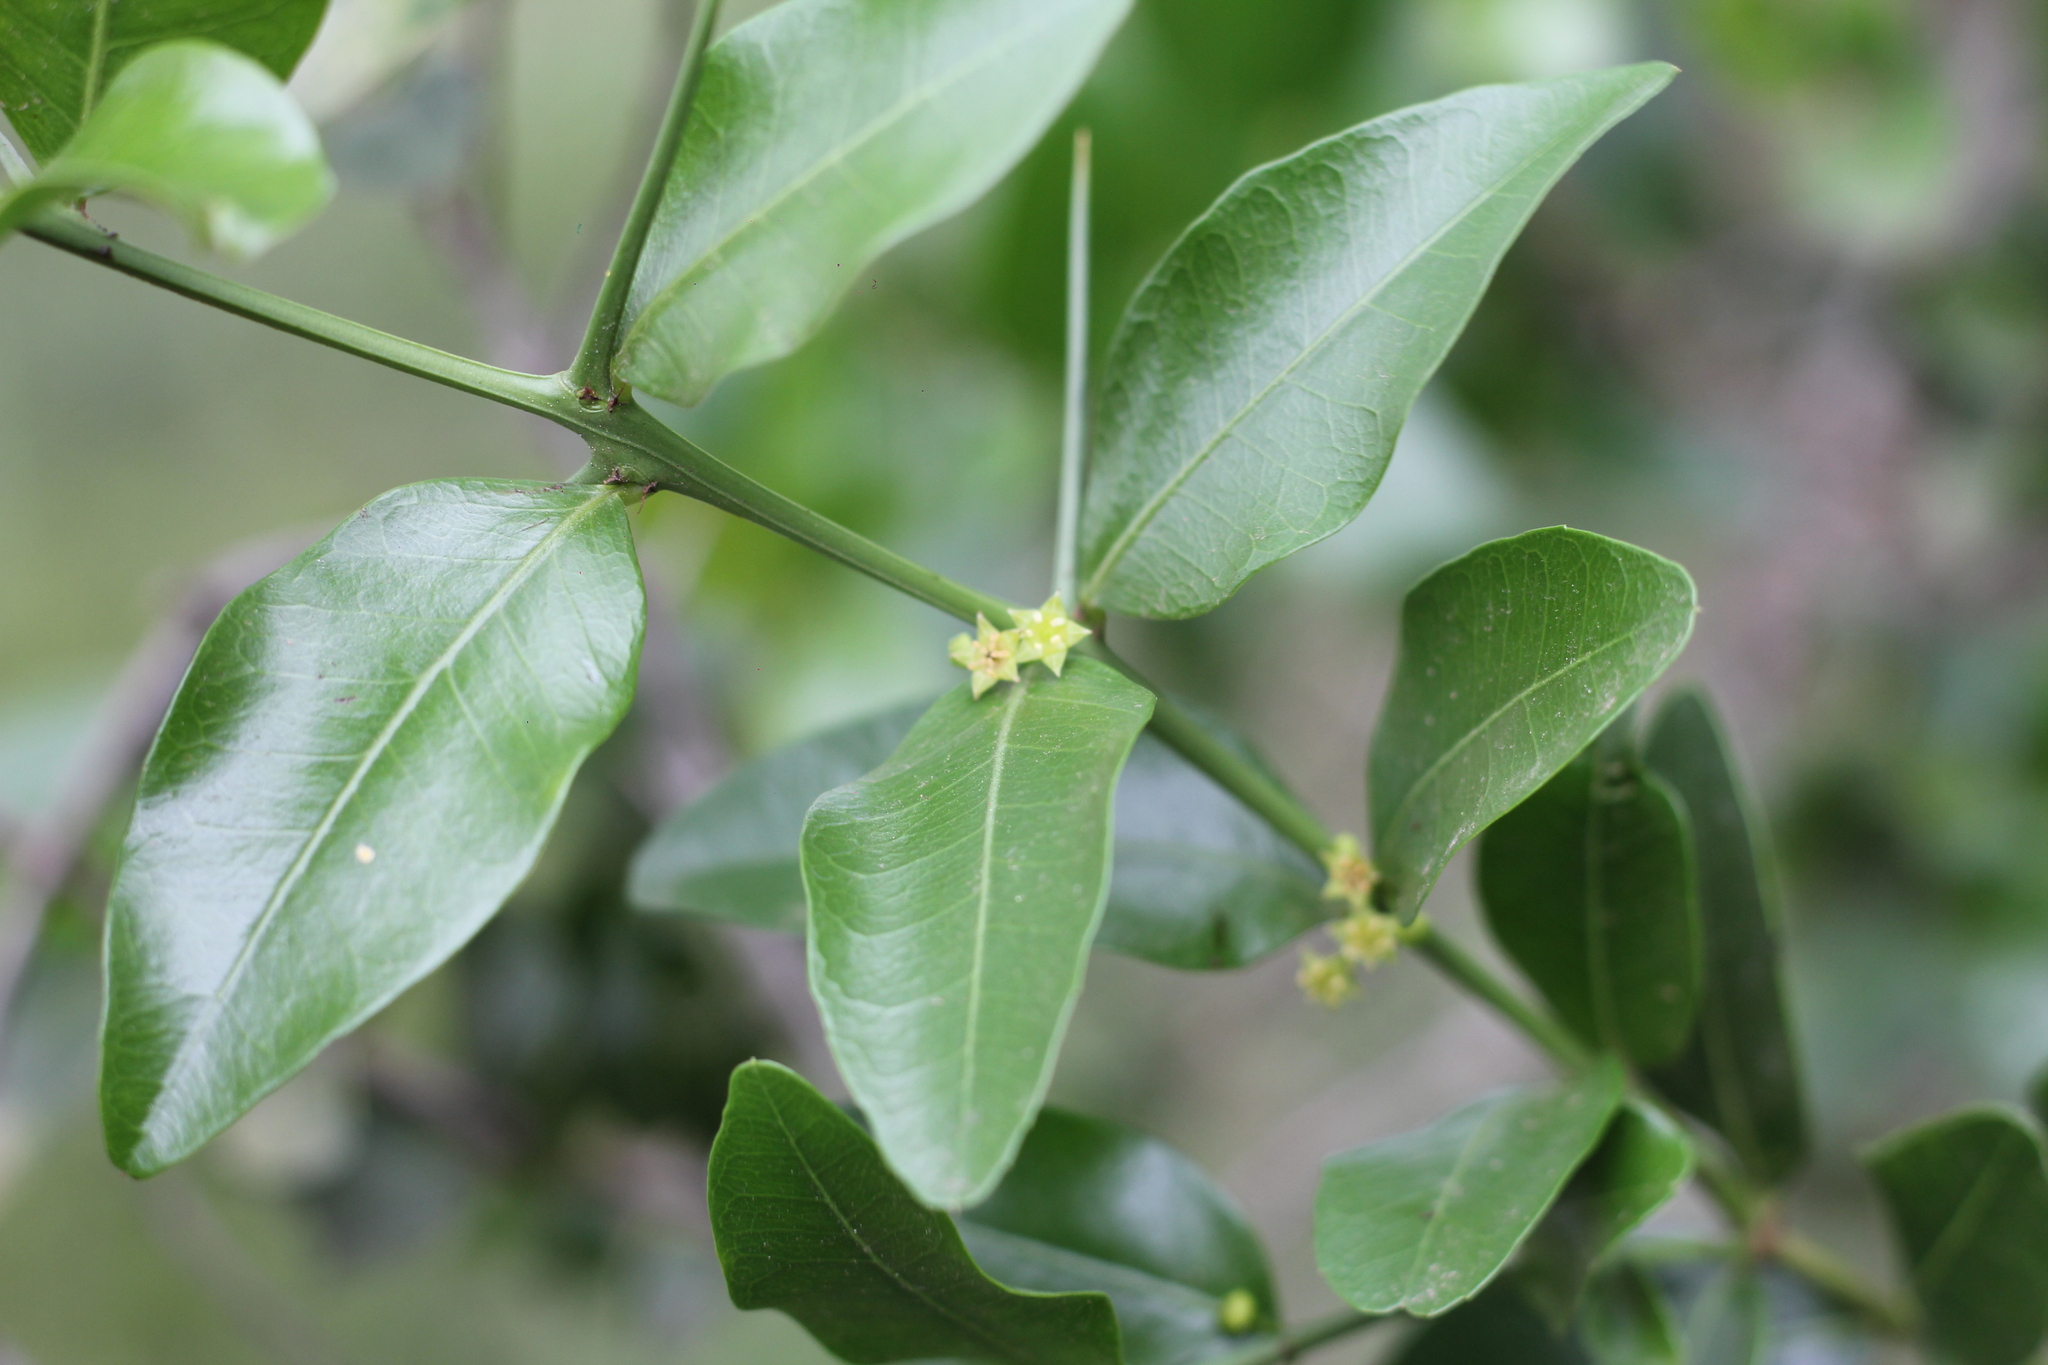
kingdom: Plantae
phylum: Tracheophyta
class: Magnoliopsida
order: Rosales
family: Rhamnaceae
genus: Scutia
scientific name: Scutia buxifolia
